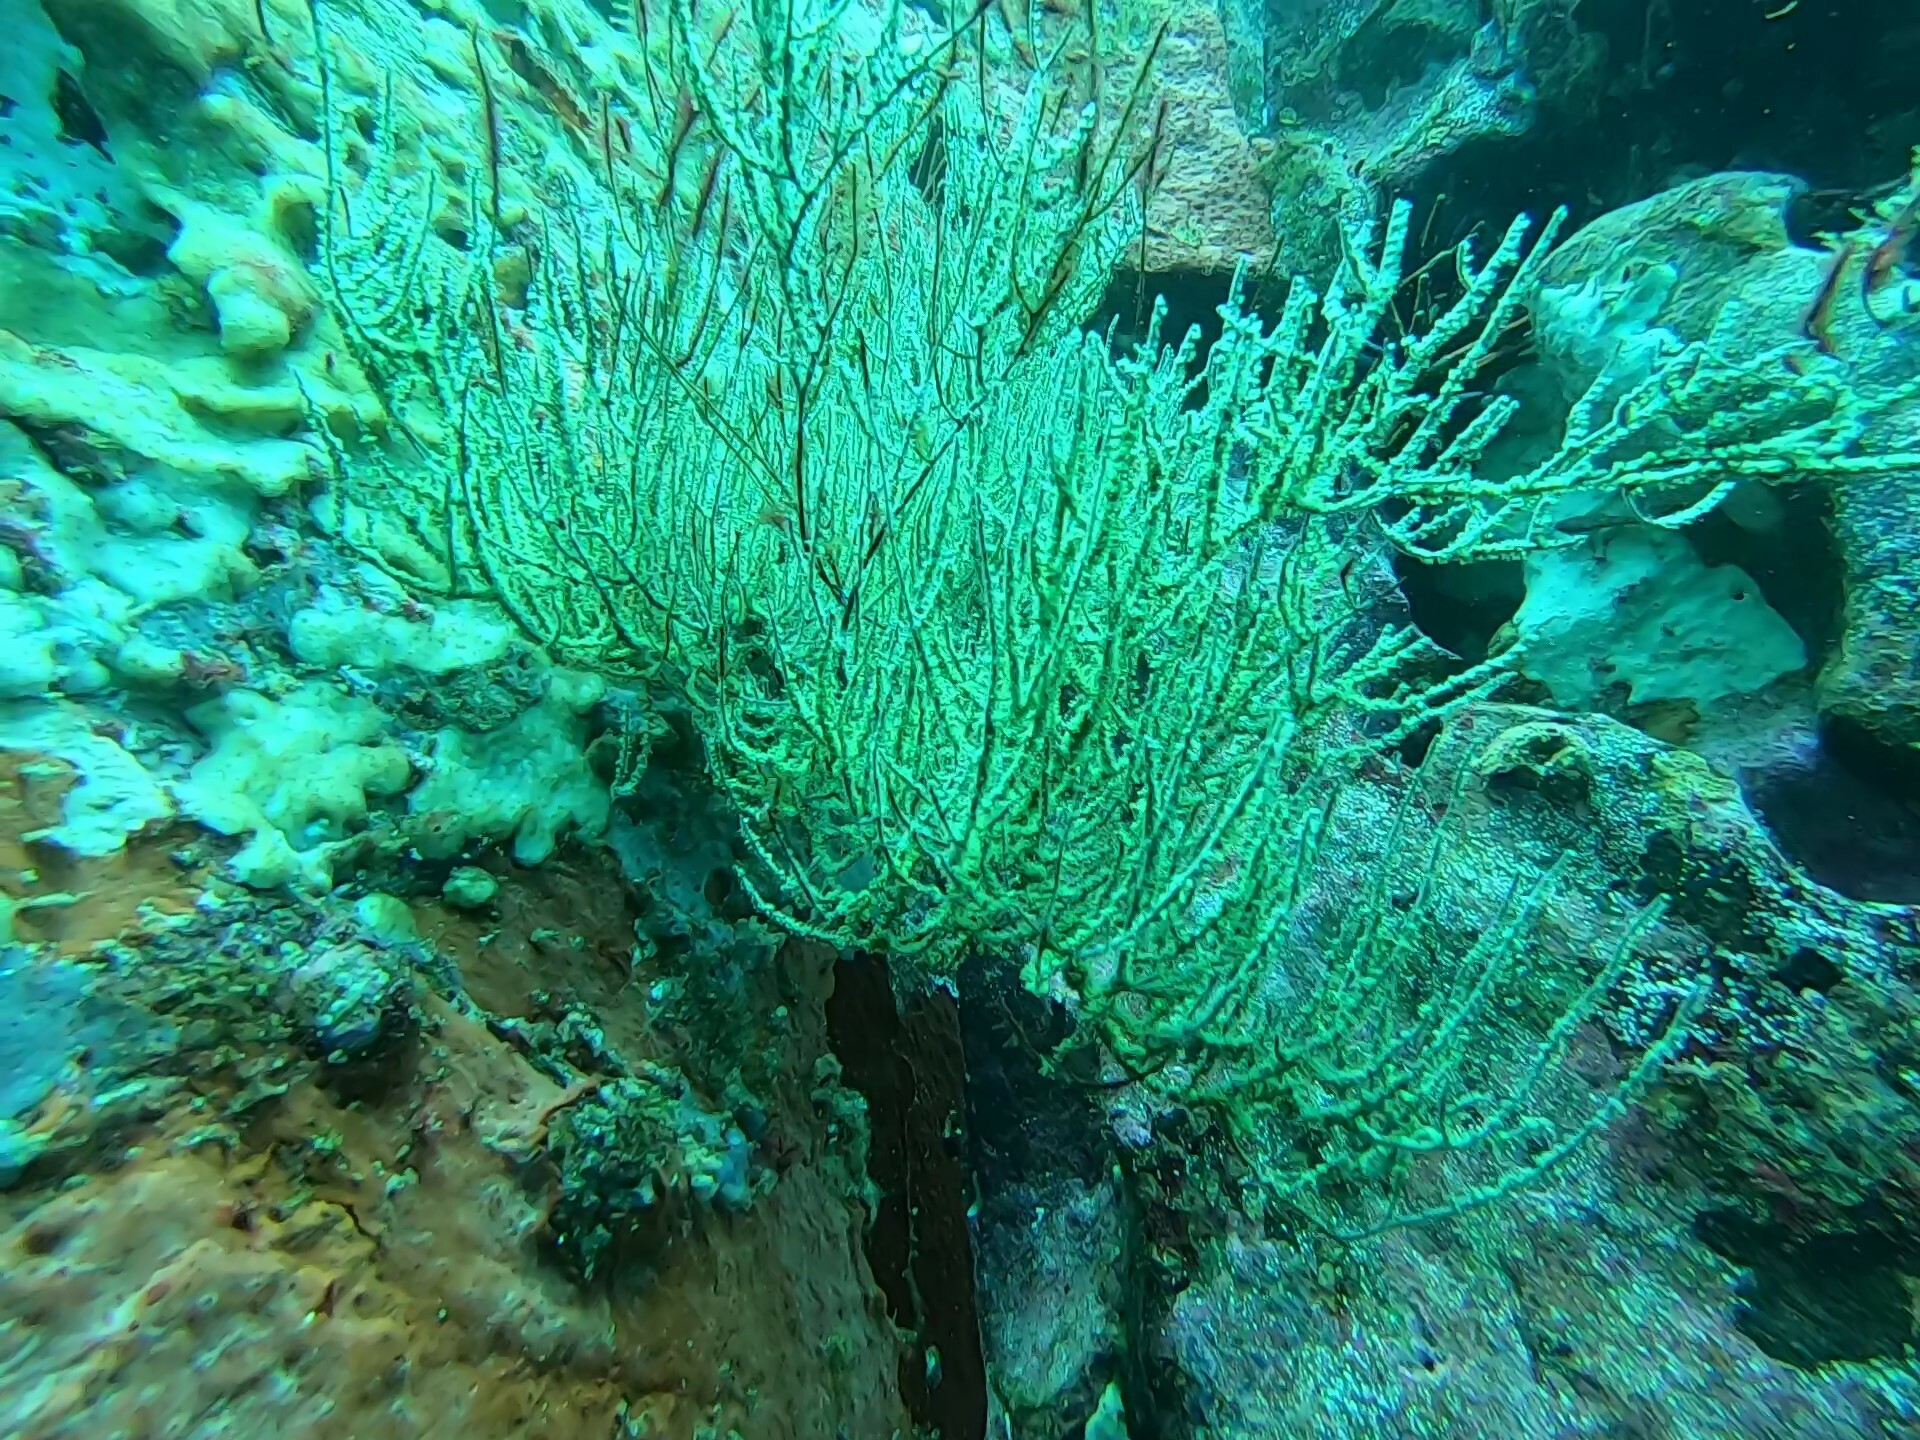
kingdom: Animalia
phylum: Cnidaria
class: Anthozoa
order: Antipatharia
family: Antipathidae
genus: Antipathes
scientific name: Antipathes galapagensis
